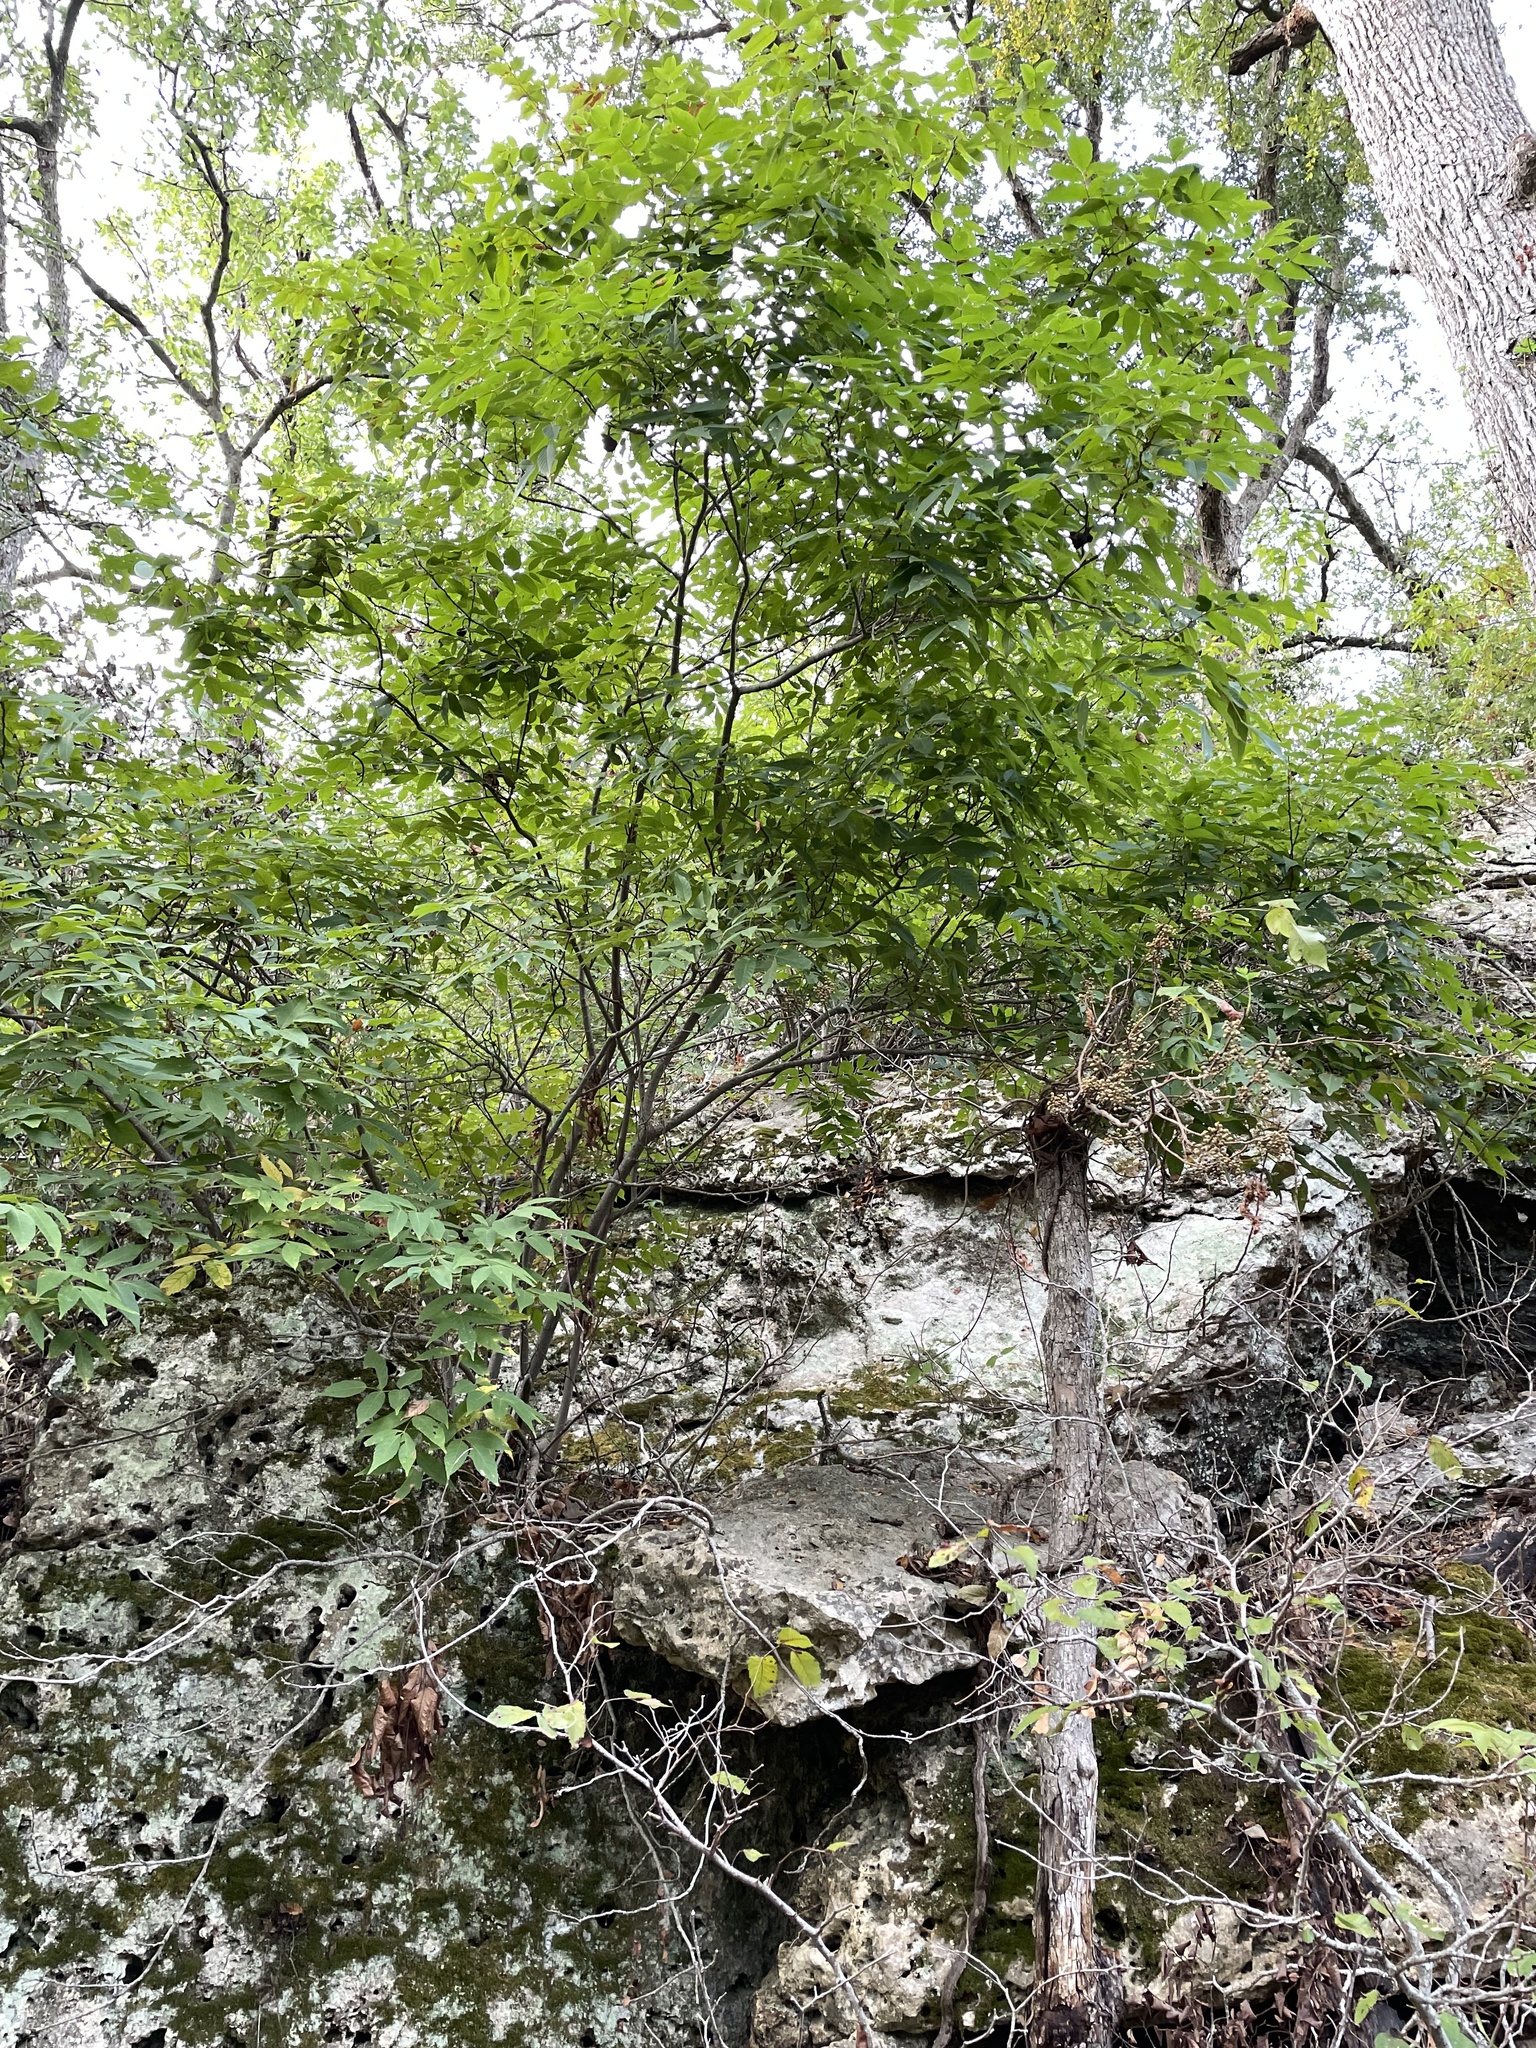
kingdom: Plantae
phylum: Tracheophyta
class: Magnoliopsida
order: Sapindales
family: Sapindaceae
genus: Ungnadia
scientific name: Ungnadia speciosa
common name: Texas-buckeye
